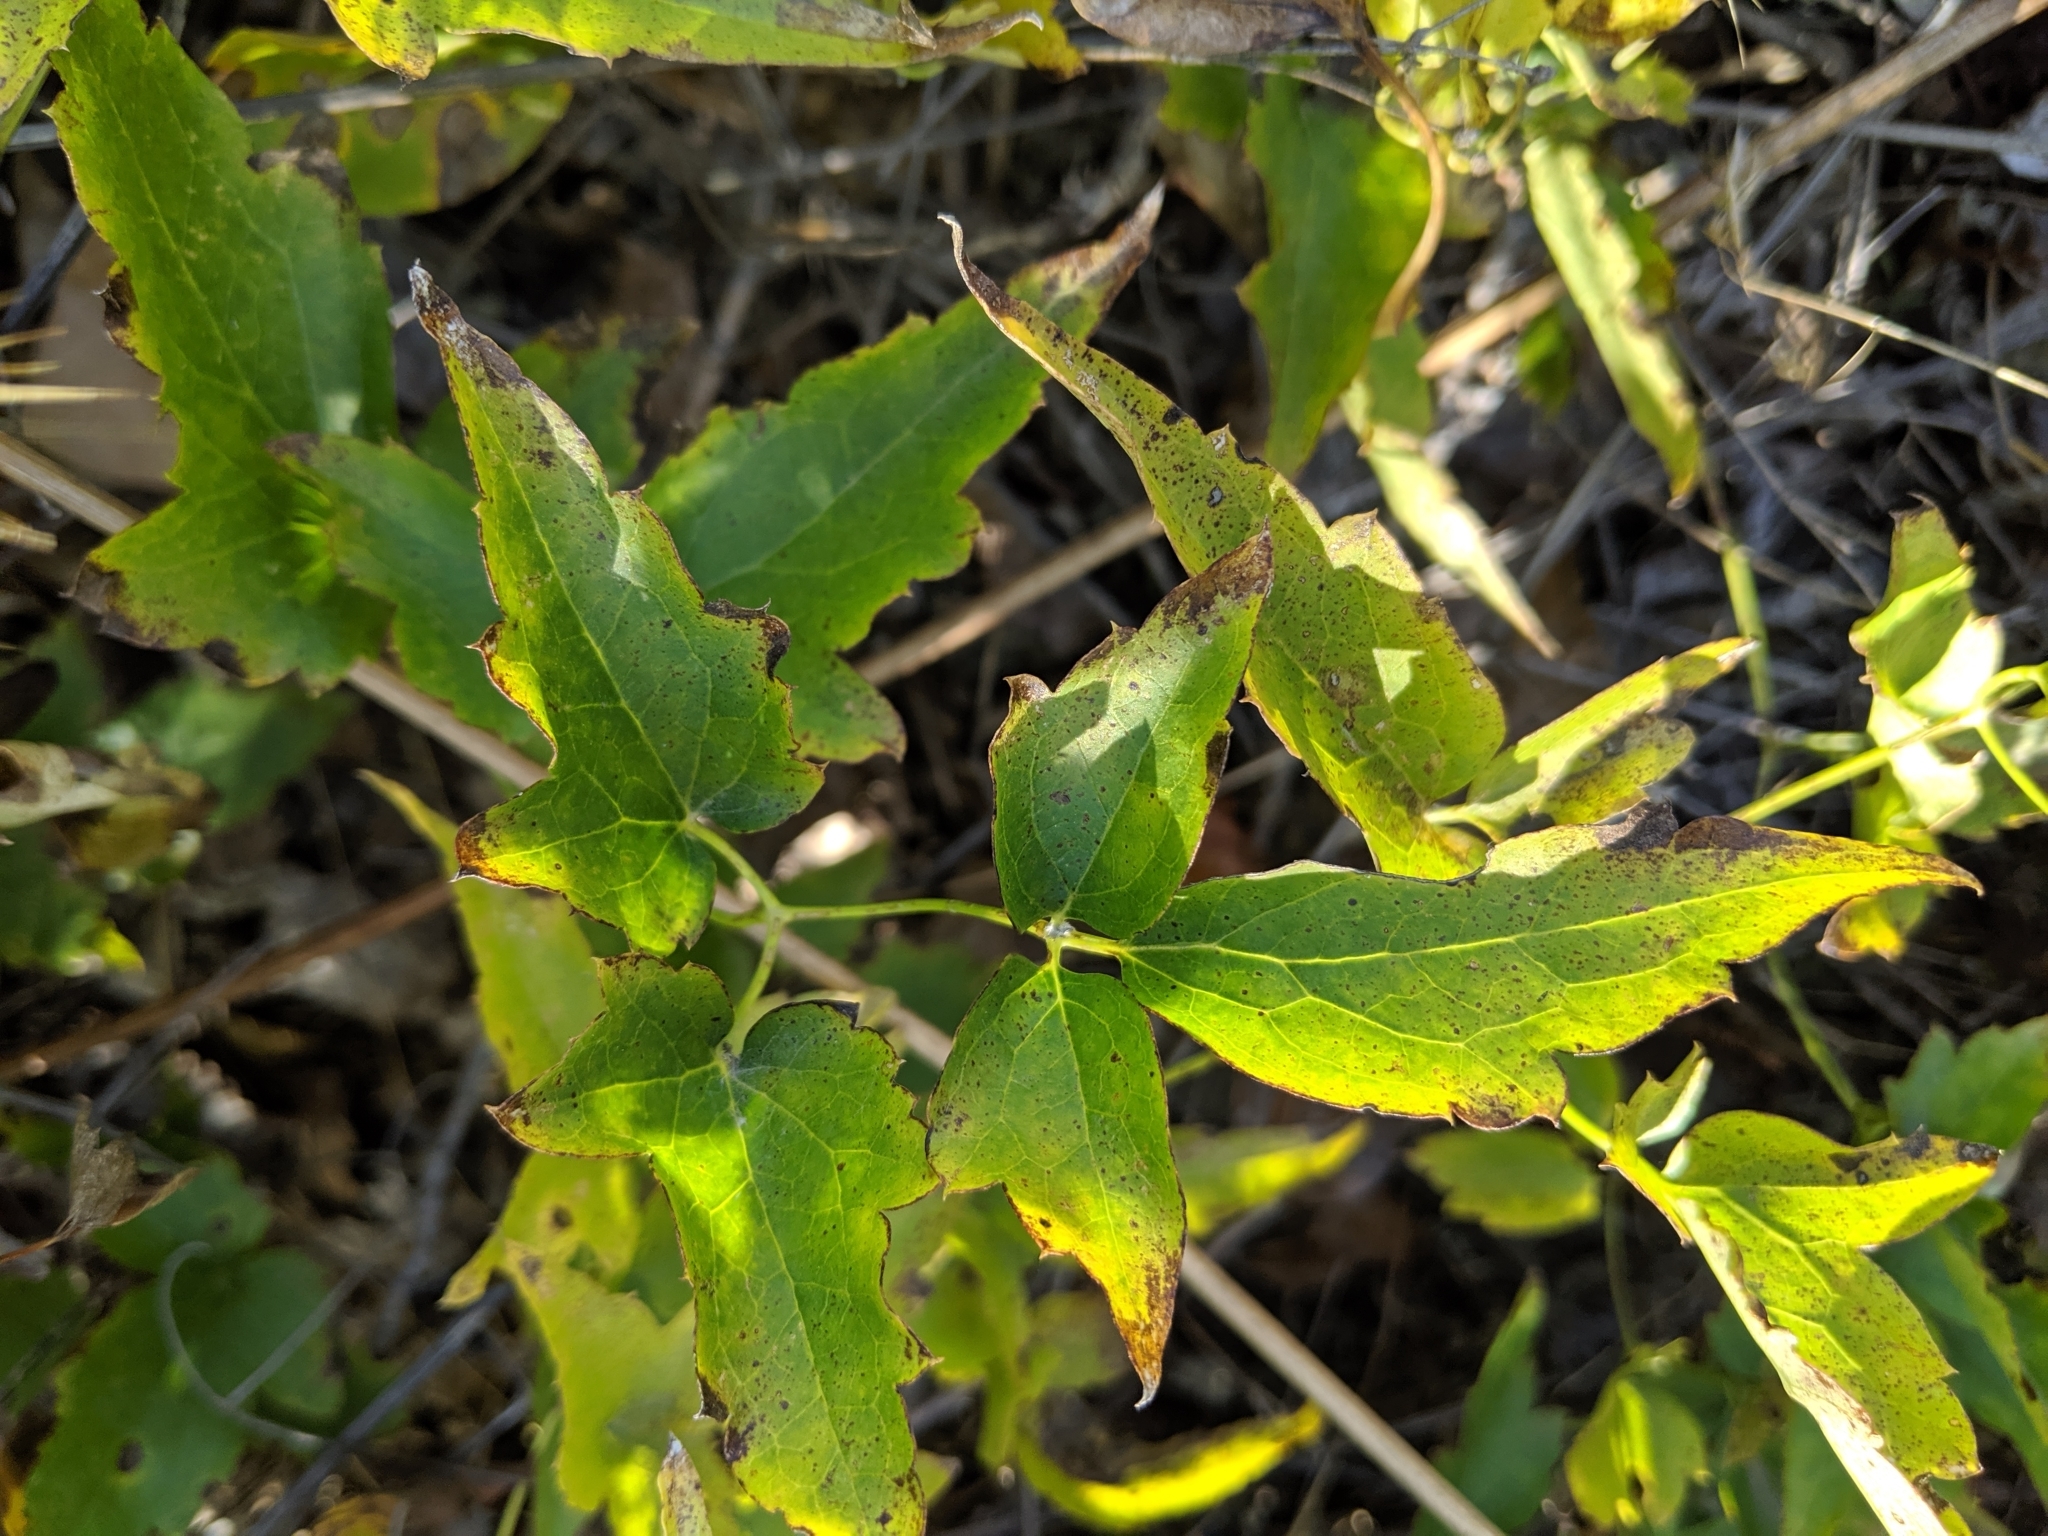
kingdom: Plantae
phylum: Tracheophyta
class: Magnoliopsida
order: Ranunculales
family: Ranunculaceae
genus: Clematis
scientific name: Clematis ligusticifolia
